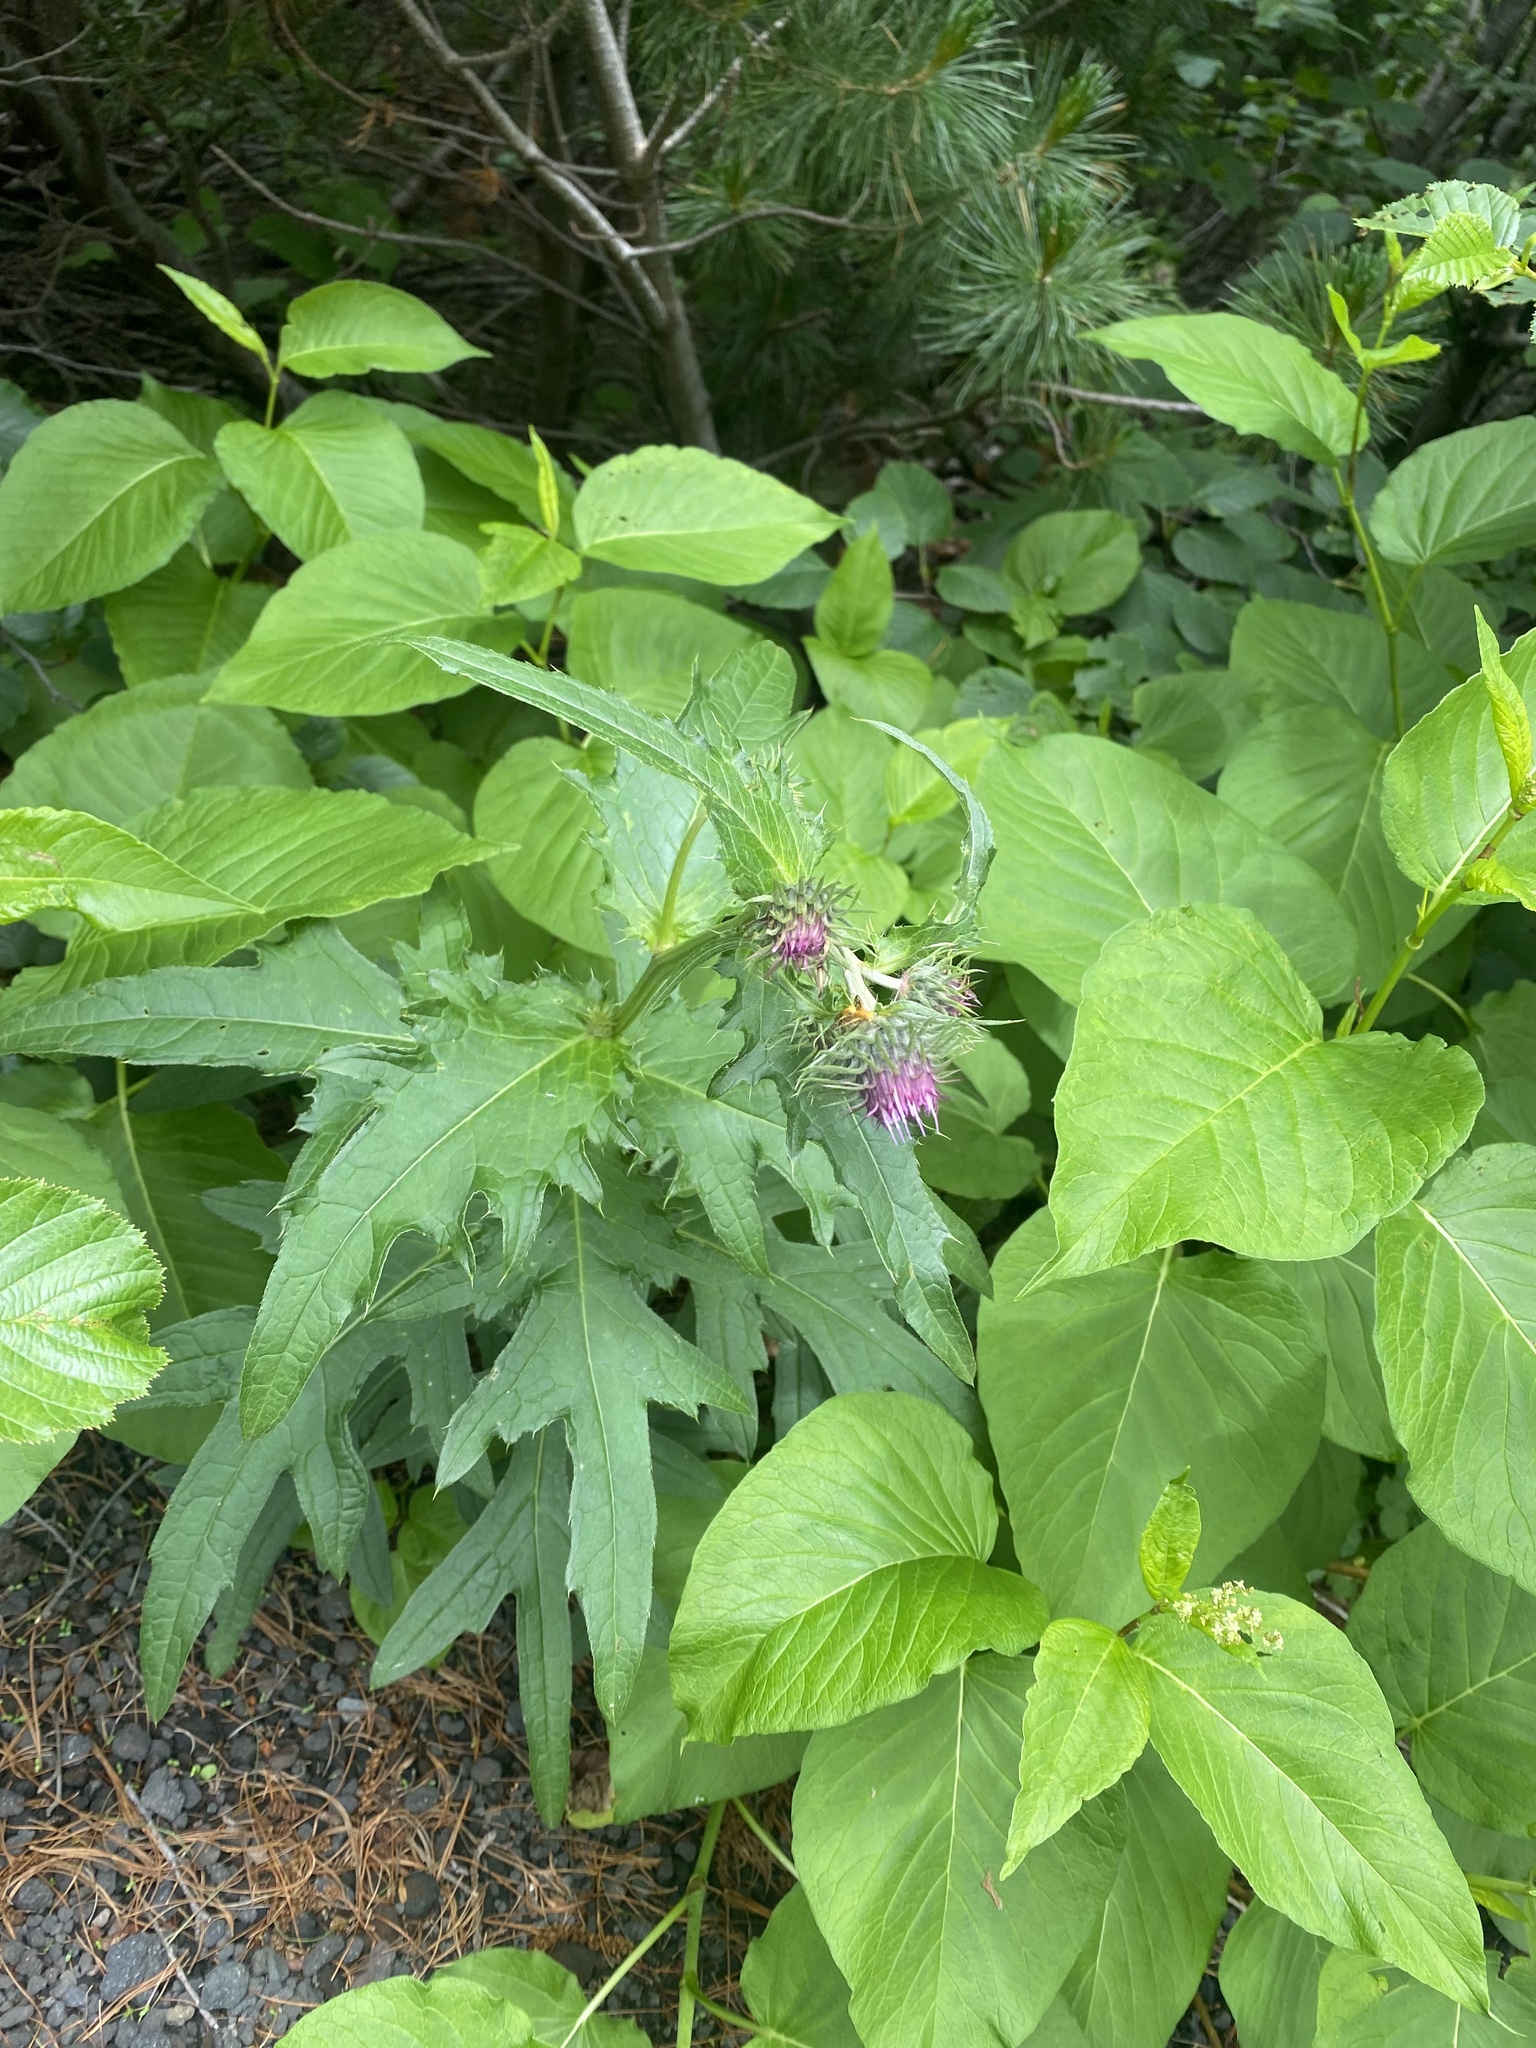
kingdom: Plantae
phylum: Tracheophyta
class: Magnoliopsida
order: Asterales
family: Asteraceae
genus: Cirsium
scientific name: Cirsium kamtschaticum
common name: Kamchatka thistle
